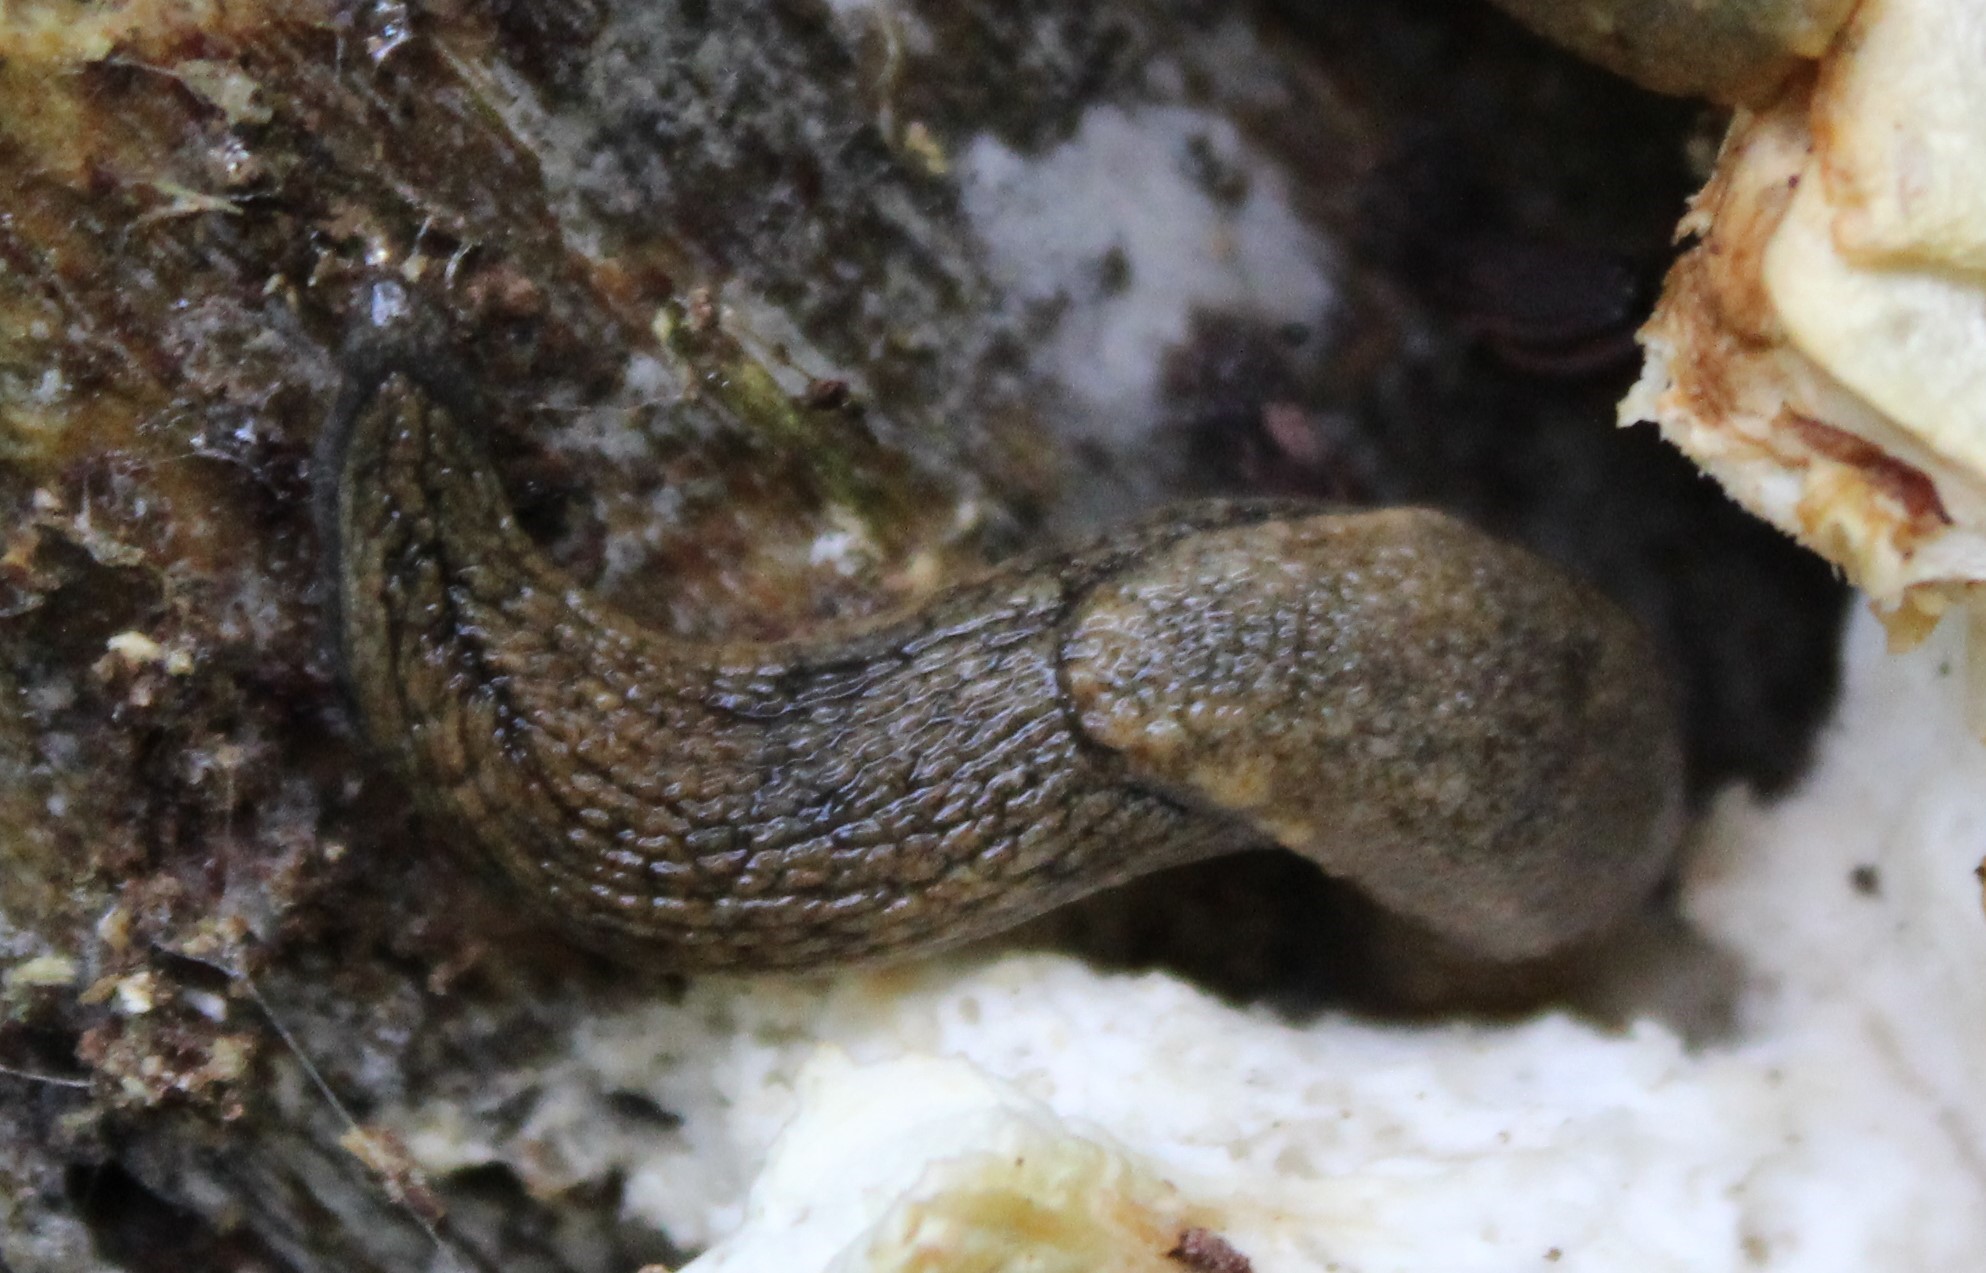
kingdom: Animalia
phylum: Mollusca
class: Gastropoda
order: Stylommatophora
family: Ariolimacidae
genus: Prophysaon
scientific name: Prophysaon vanattae
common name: Scarletback taildropper
